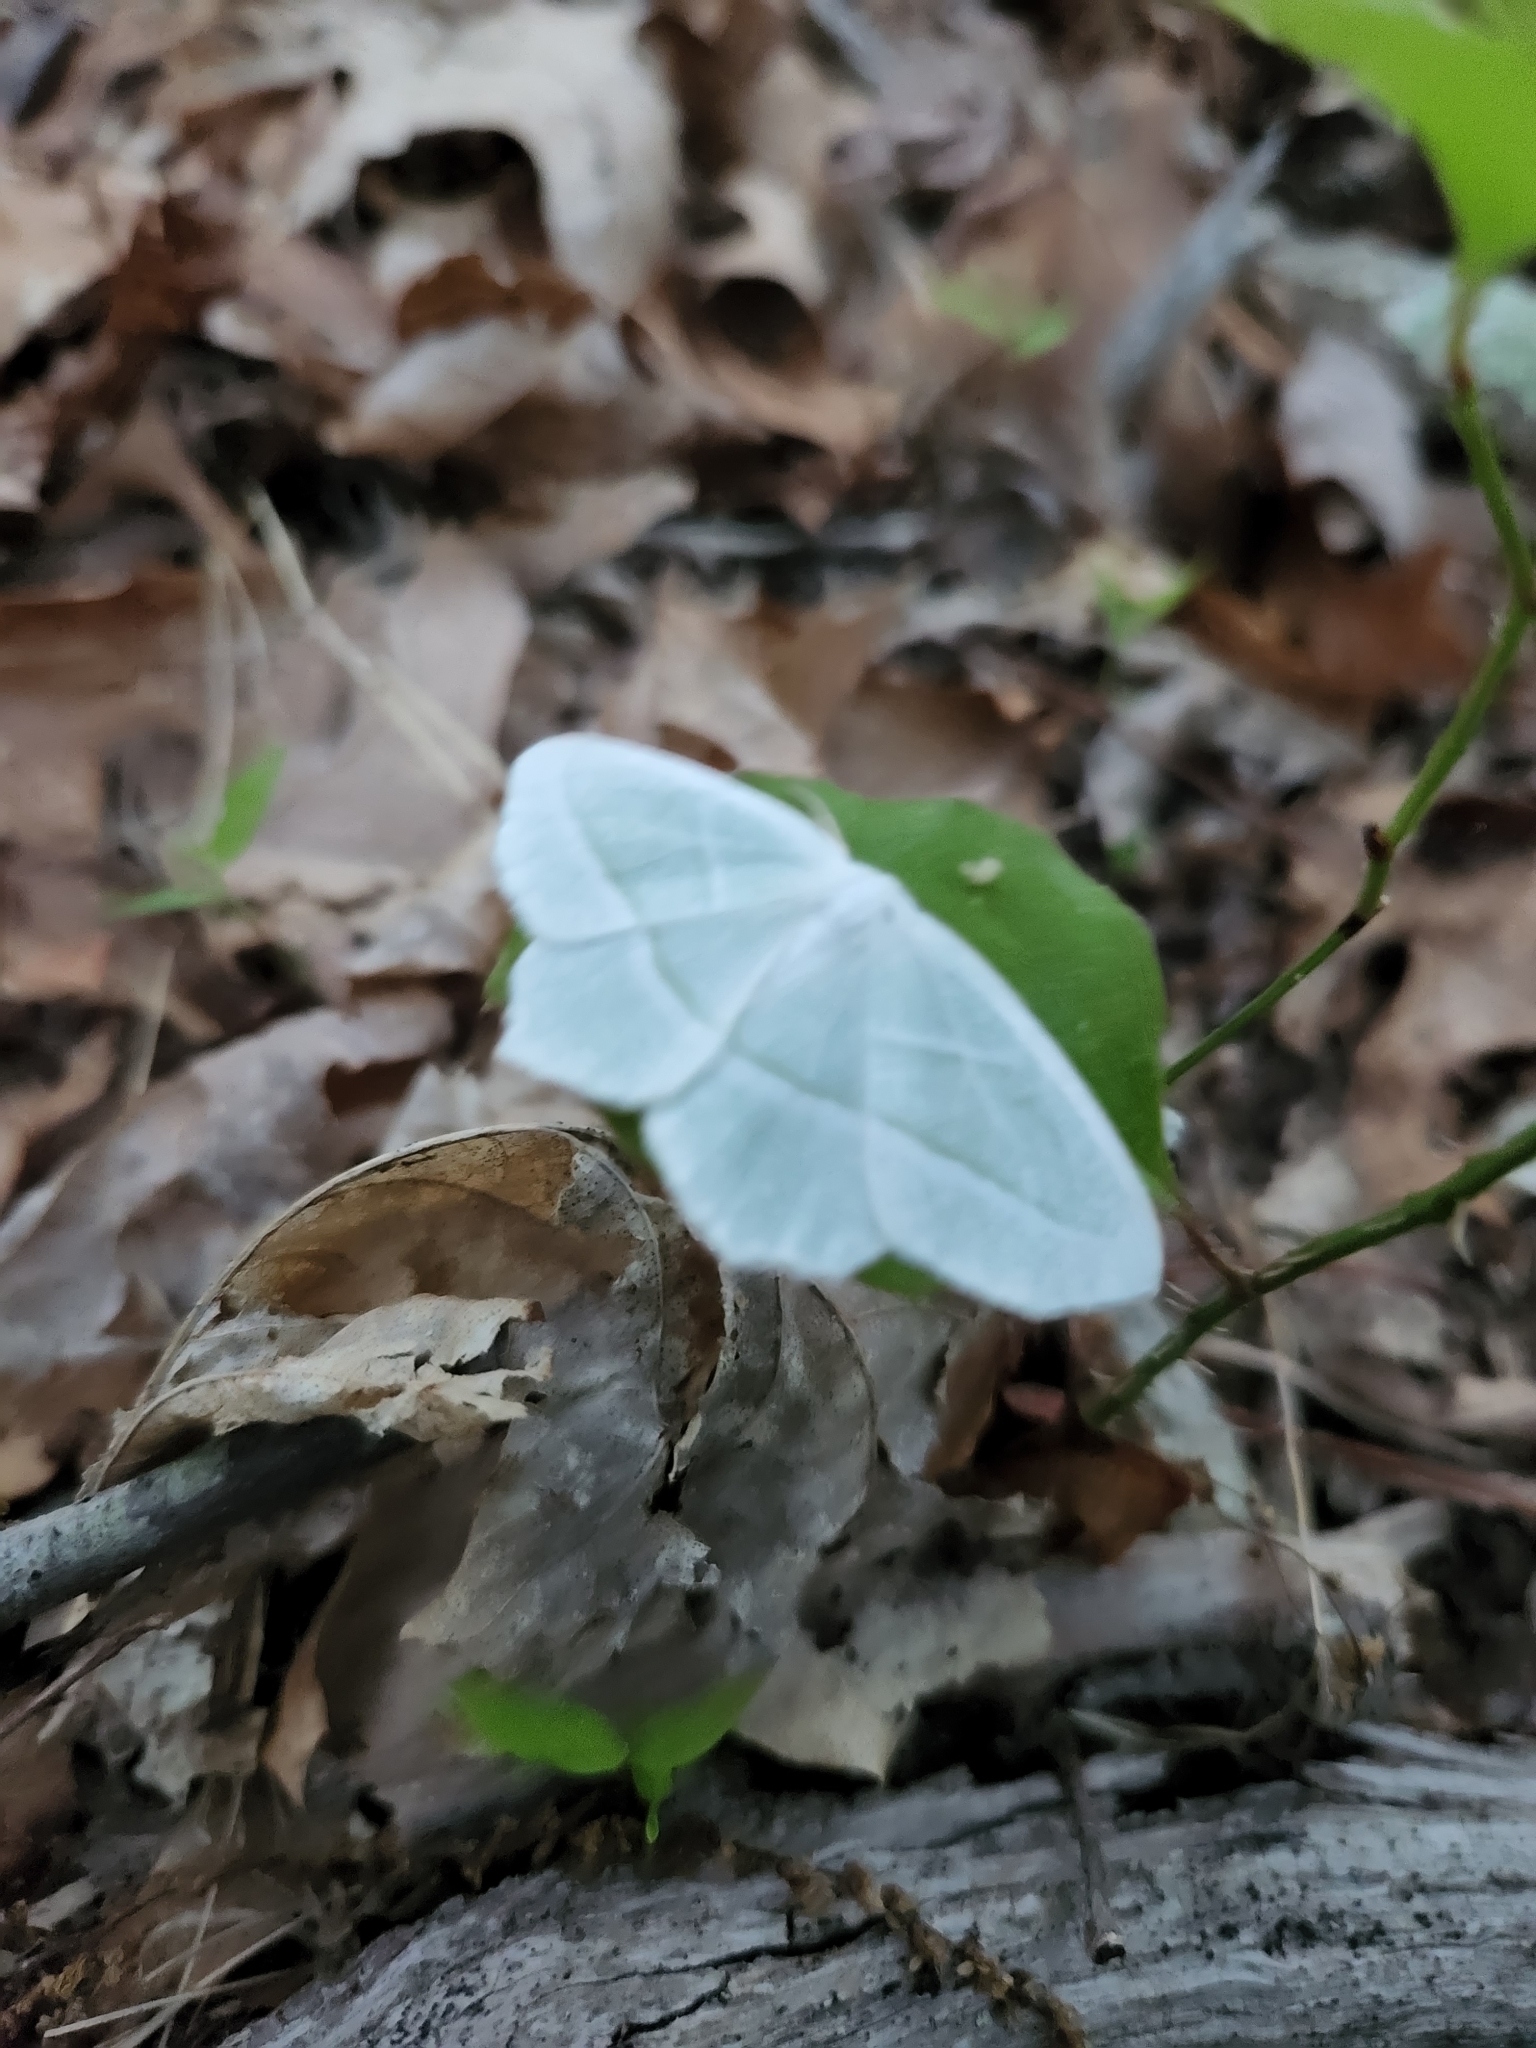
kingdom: Animalia
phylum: Arthropoda
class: Insecta
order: Lepidoptera
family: Geometridae
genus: Campaea
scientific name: Campaea perlata
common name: Fringed looper
